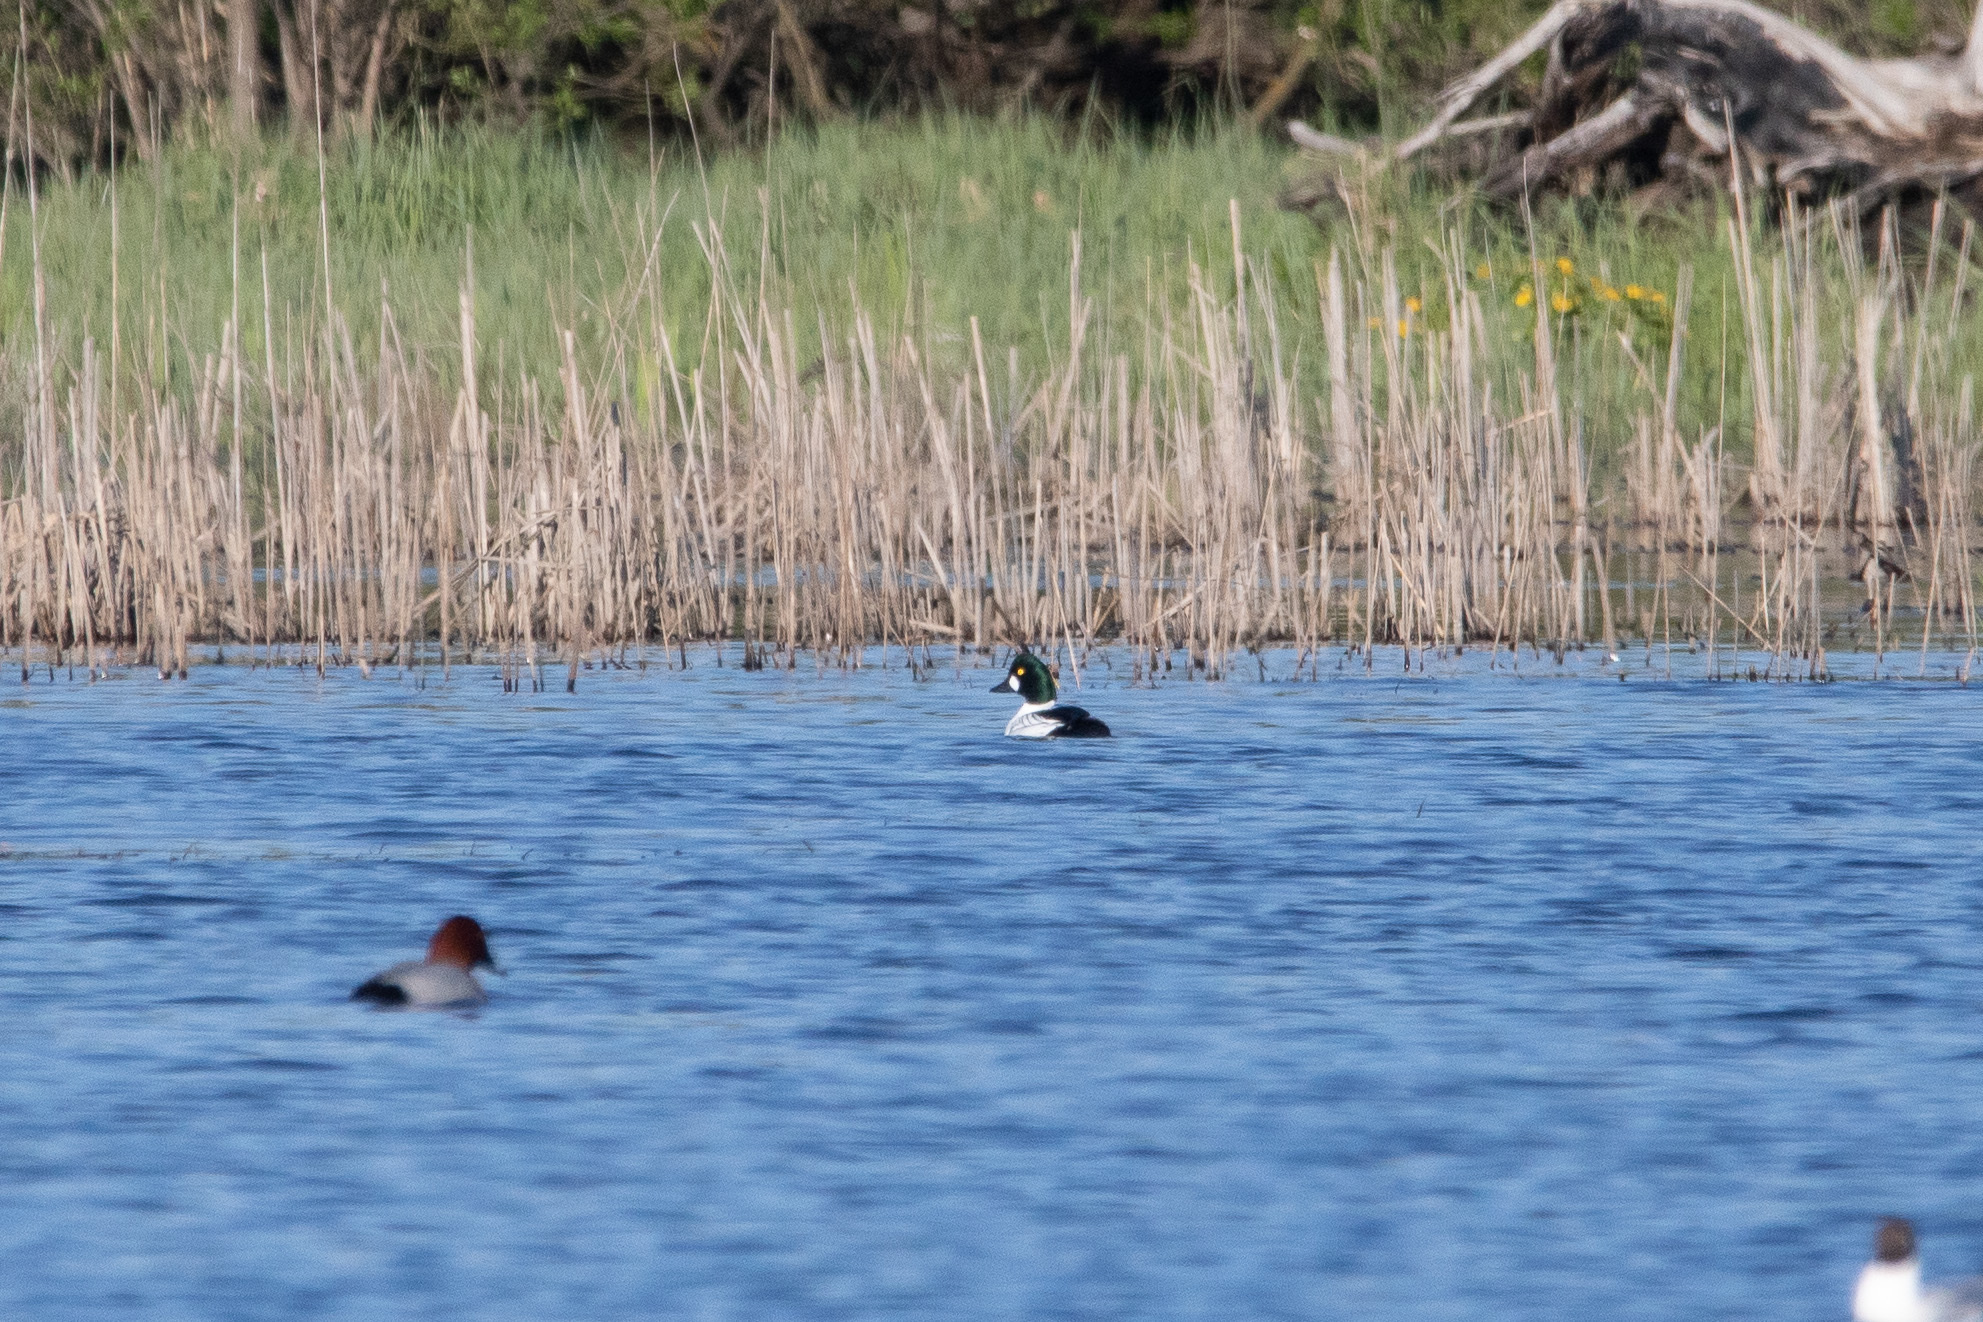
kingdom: Animalia
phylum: Chordata
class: Aves
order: Anseriformes
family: Anatidae
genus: Bucephala
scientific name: Bucephala clangula
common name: Common goldeneye
